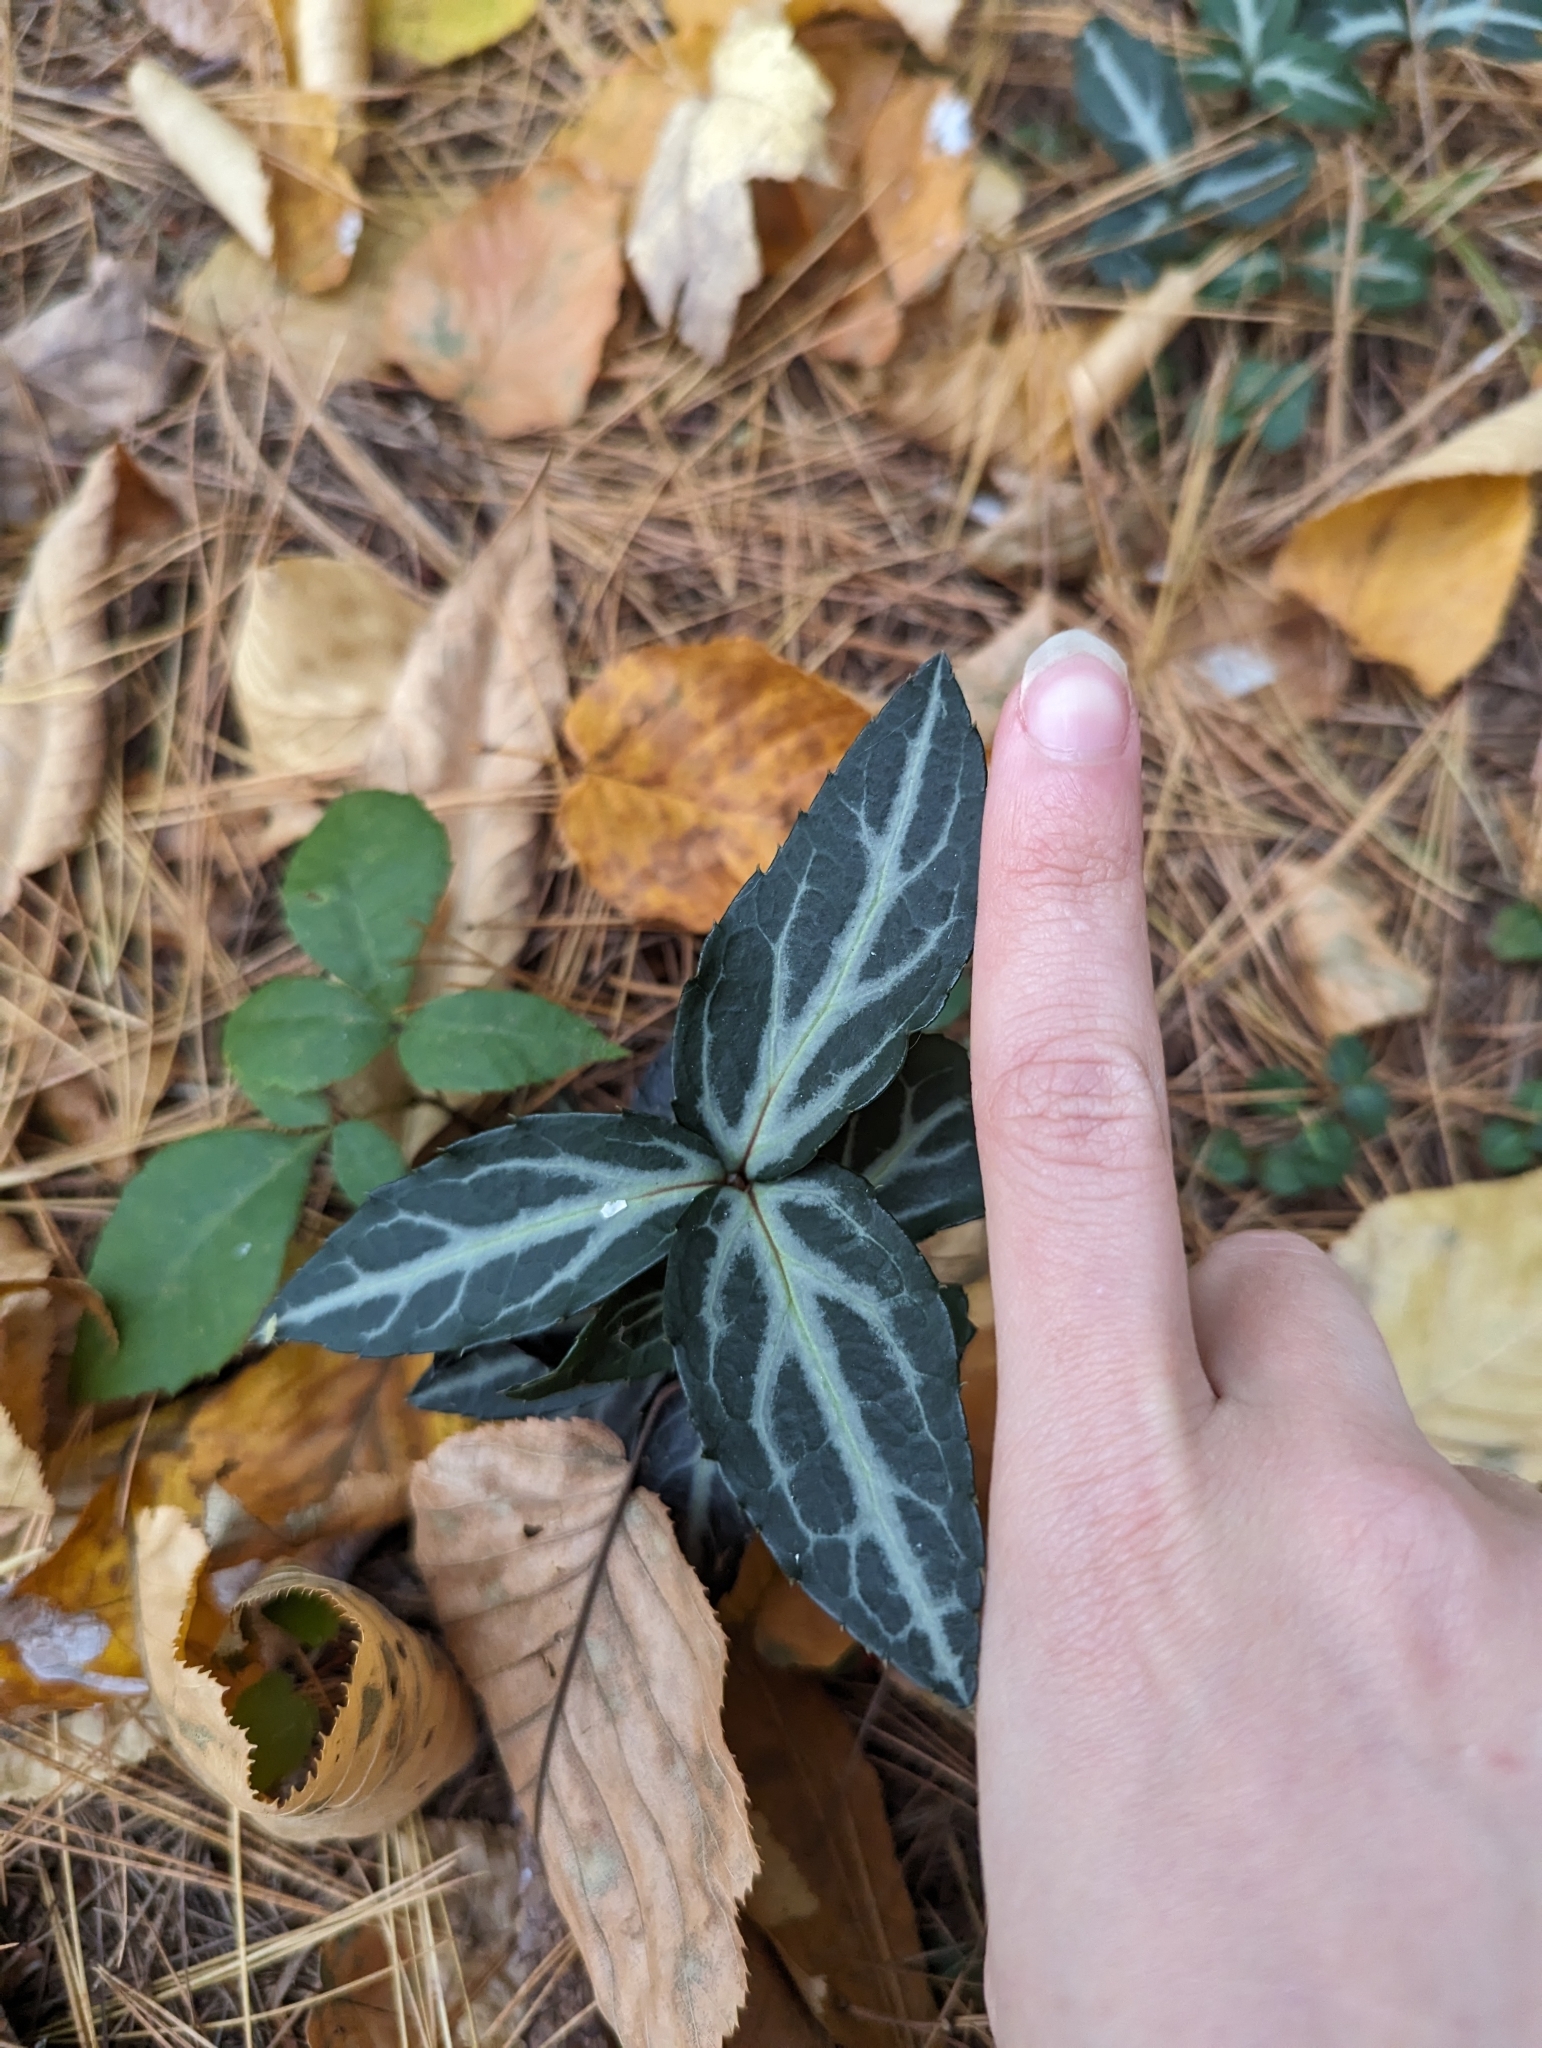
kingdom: Plantae
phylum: Tracheophyta
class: Magnoliopsida
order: Ericales
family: Ericaceae
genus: Chimaphila
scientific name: Chimaphila maculata
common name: Spotted pipsissewa
